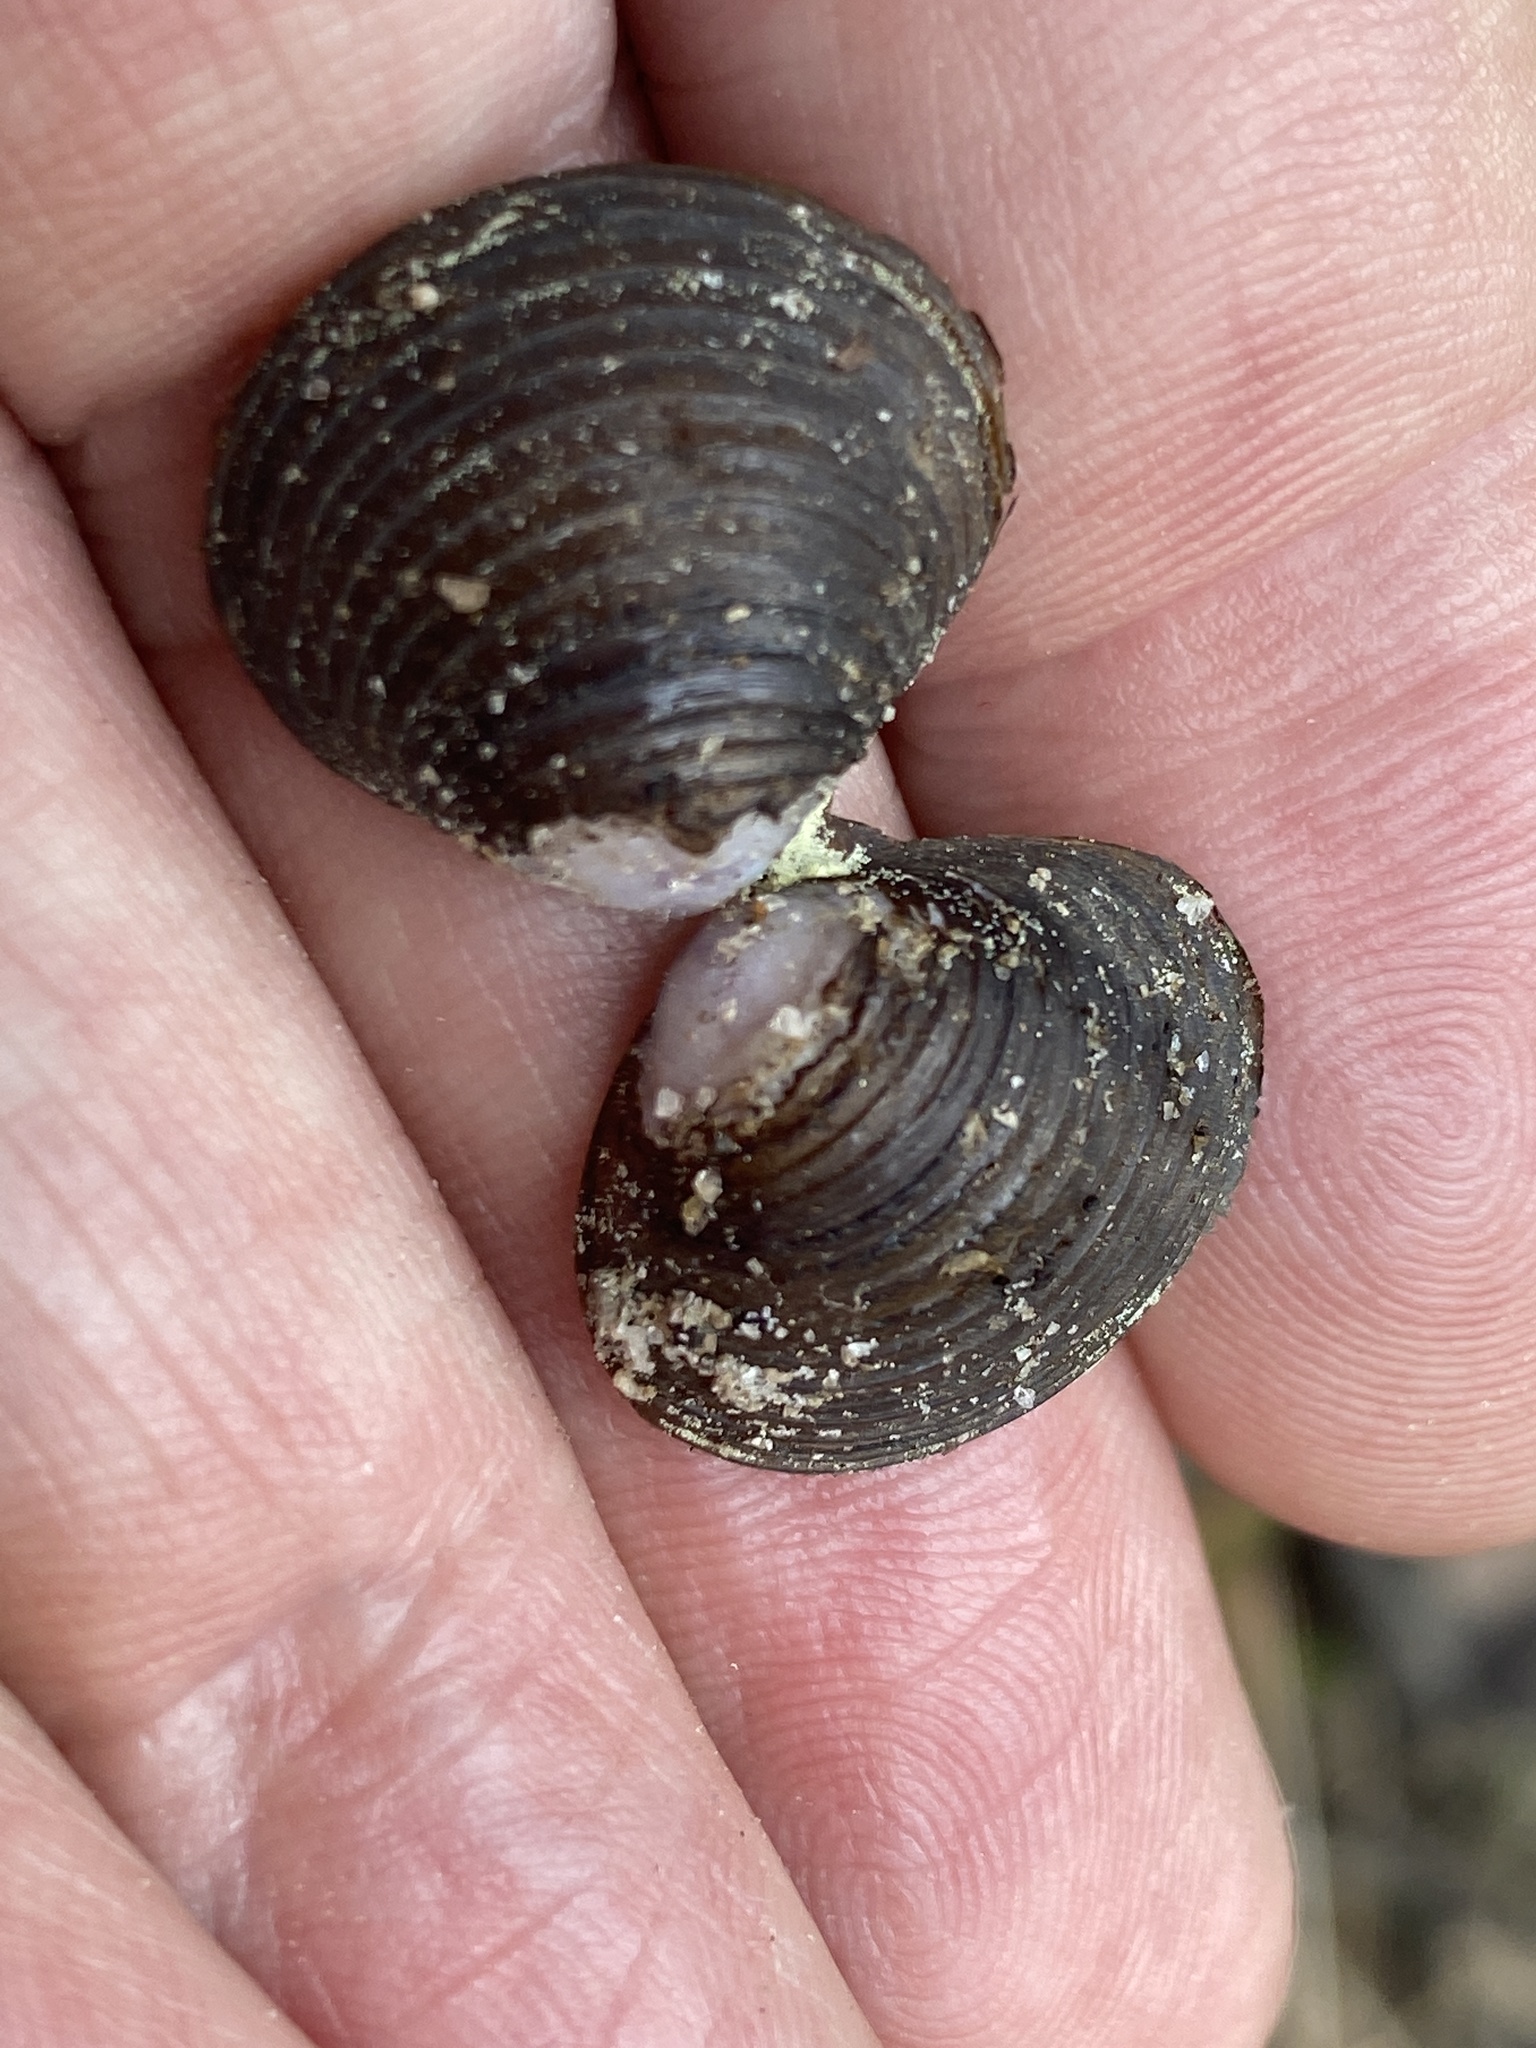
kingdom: Animalia
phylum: Mollusca
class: Bivalvia
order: Venerida
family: Cyrenidae
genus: Corbicula
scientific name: Corbicula fluminea
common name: Asian clam
